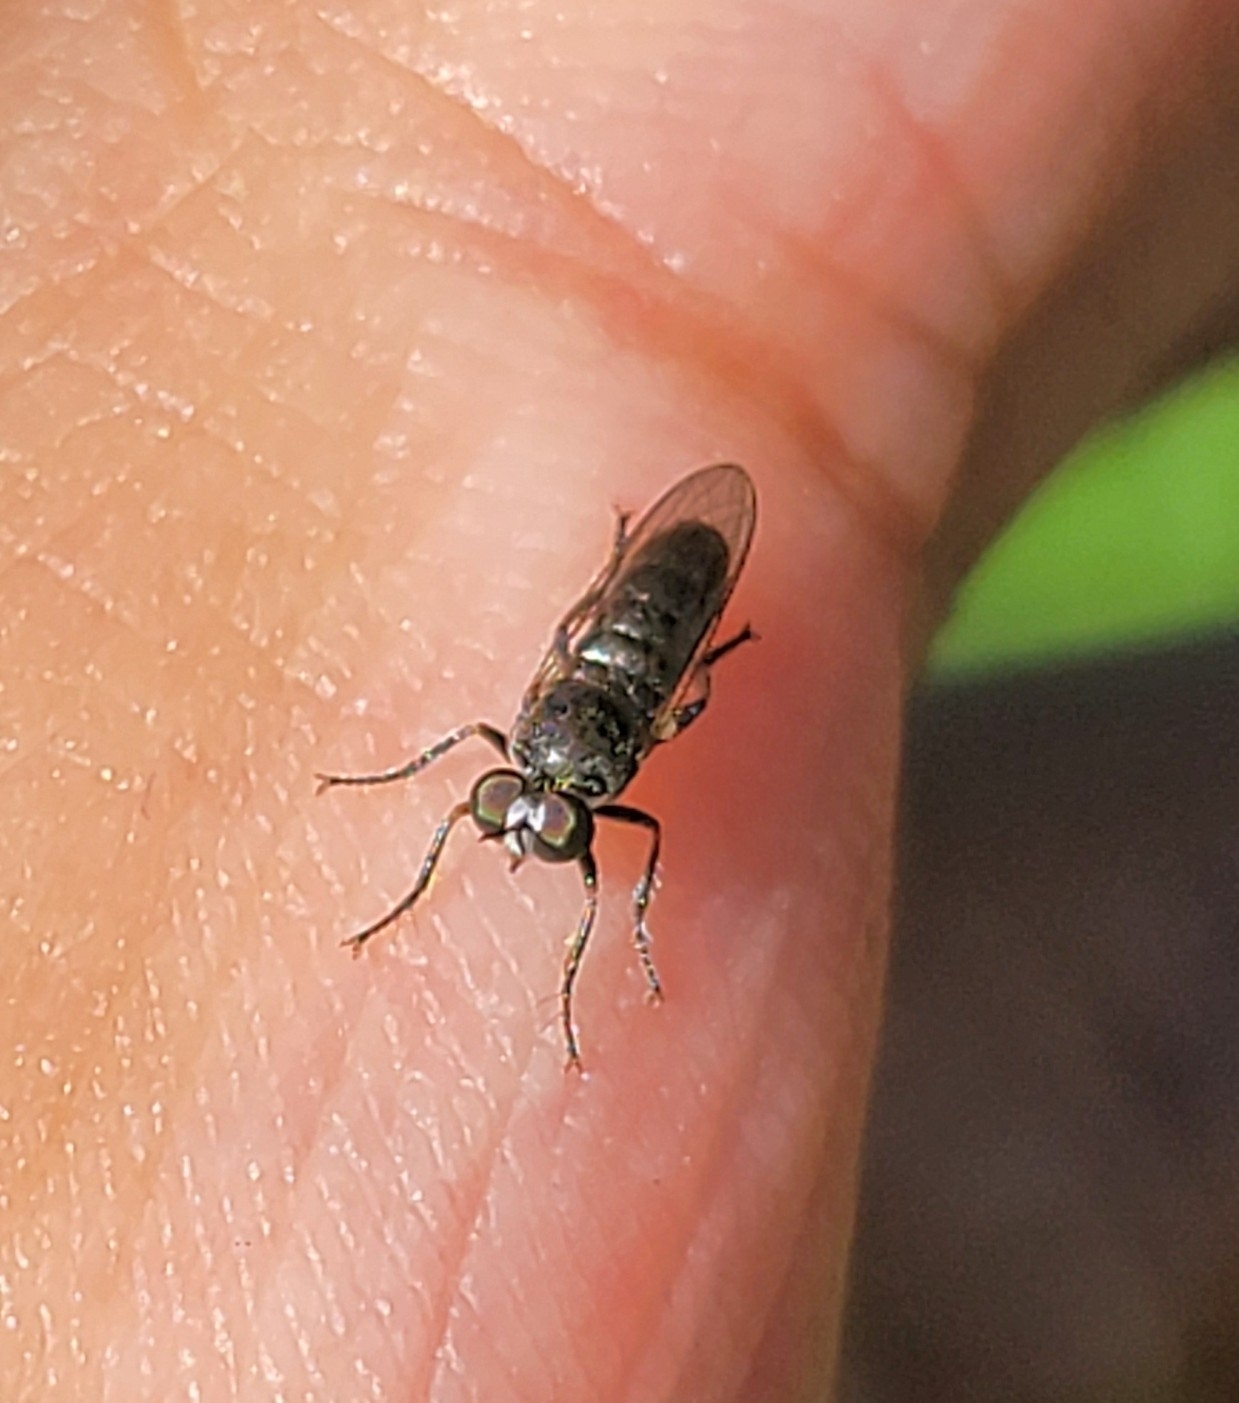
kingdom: Animalia
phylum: Arthropoda
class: Insecta
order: Diptera
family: Asilidae
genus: Atomosia
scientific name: Atomosia puella
